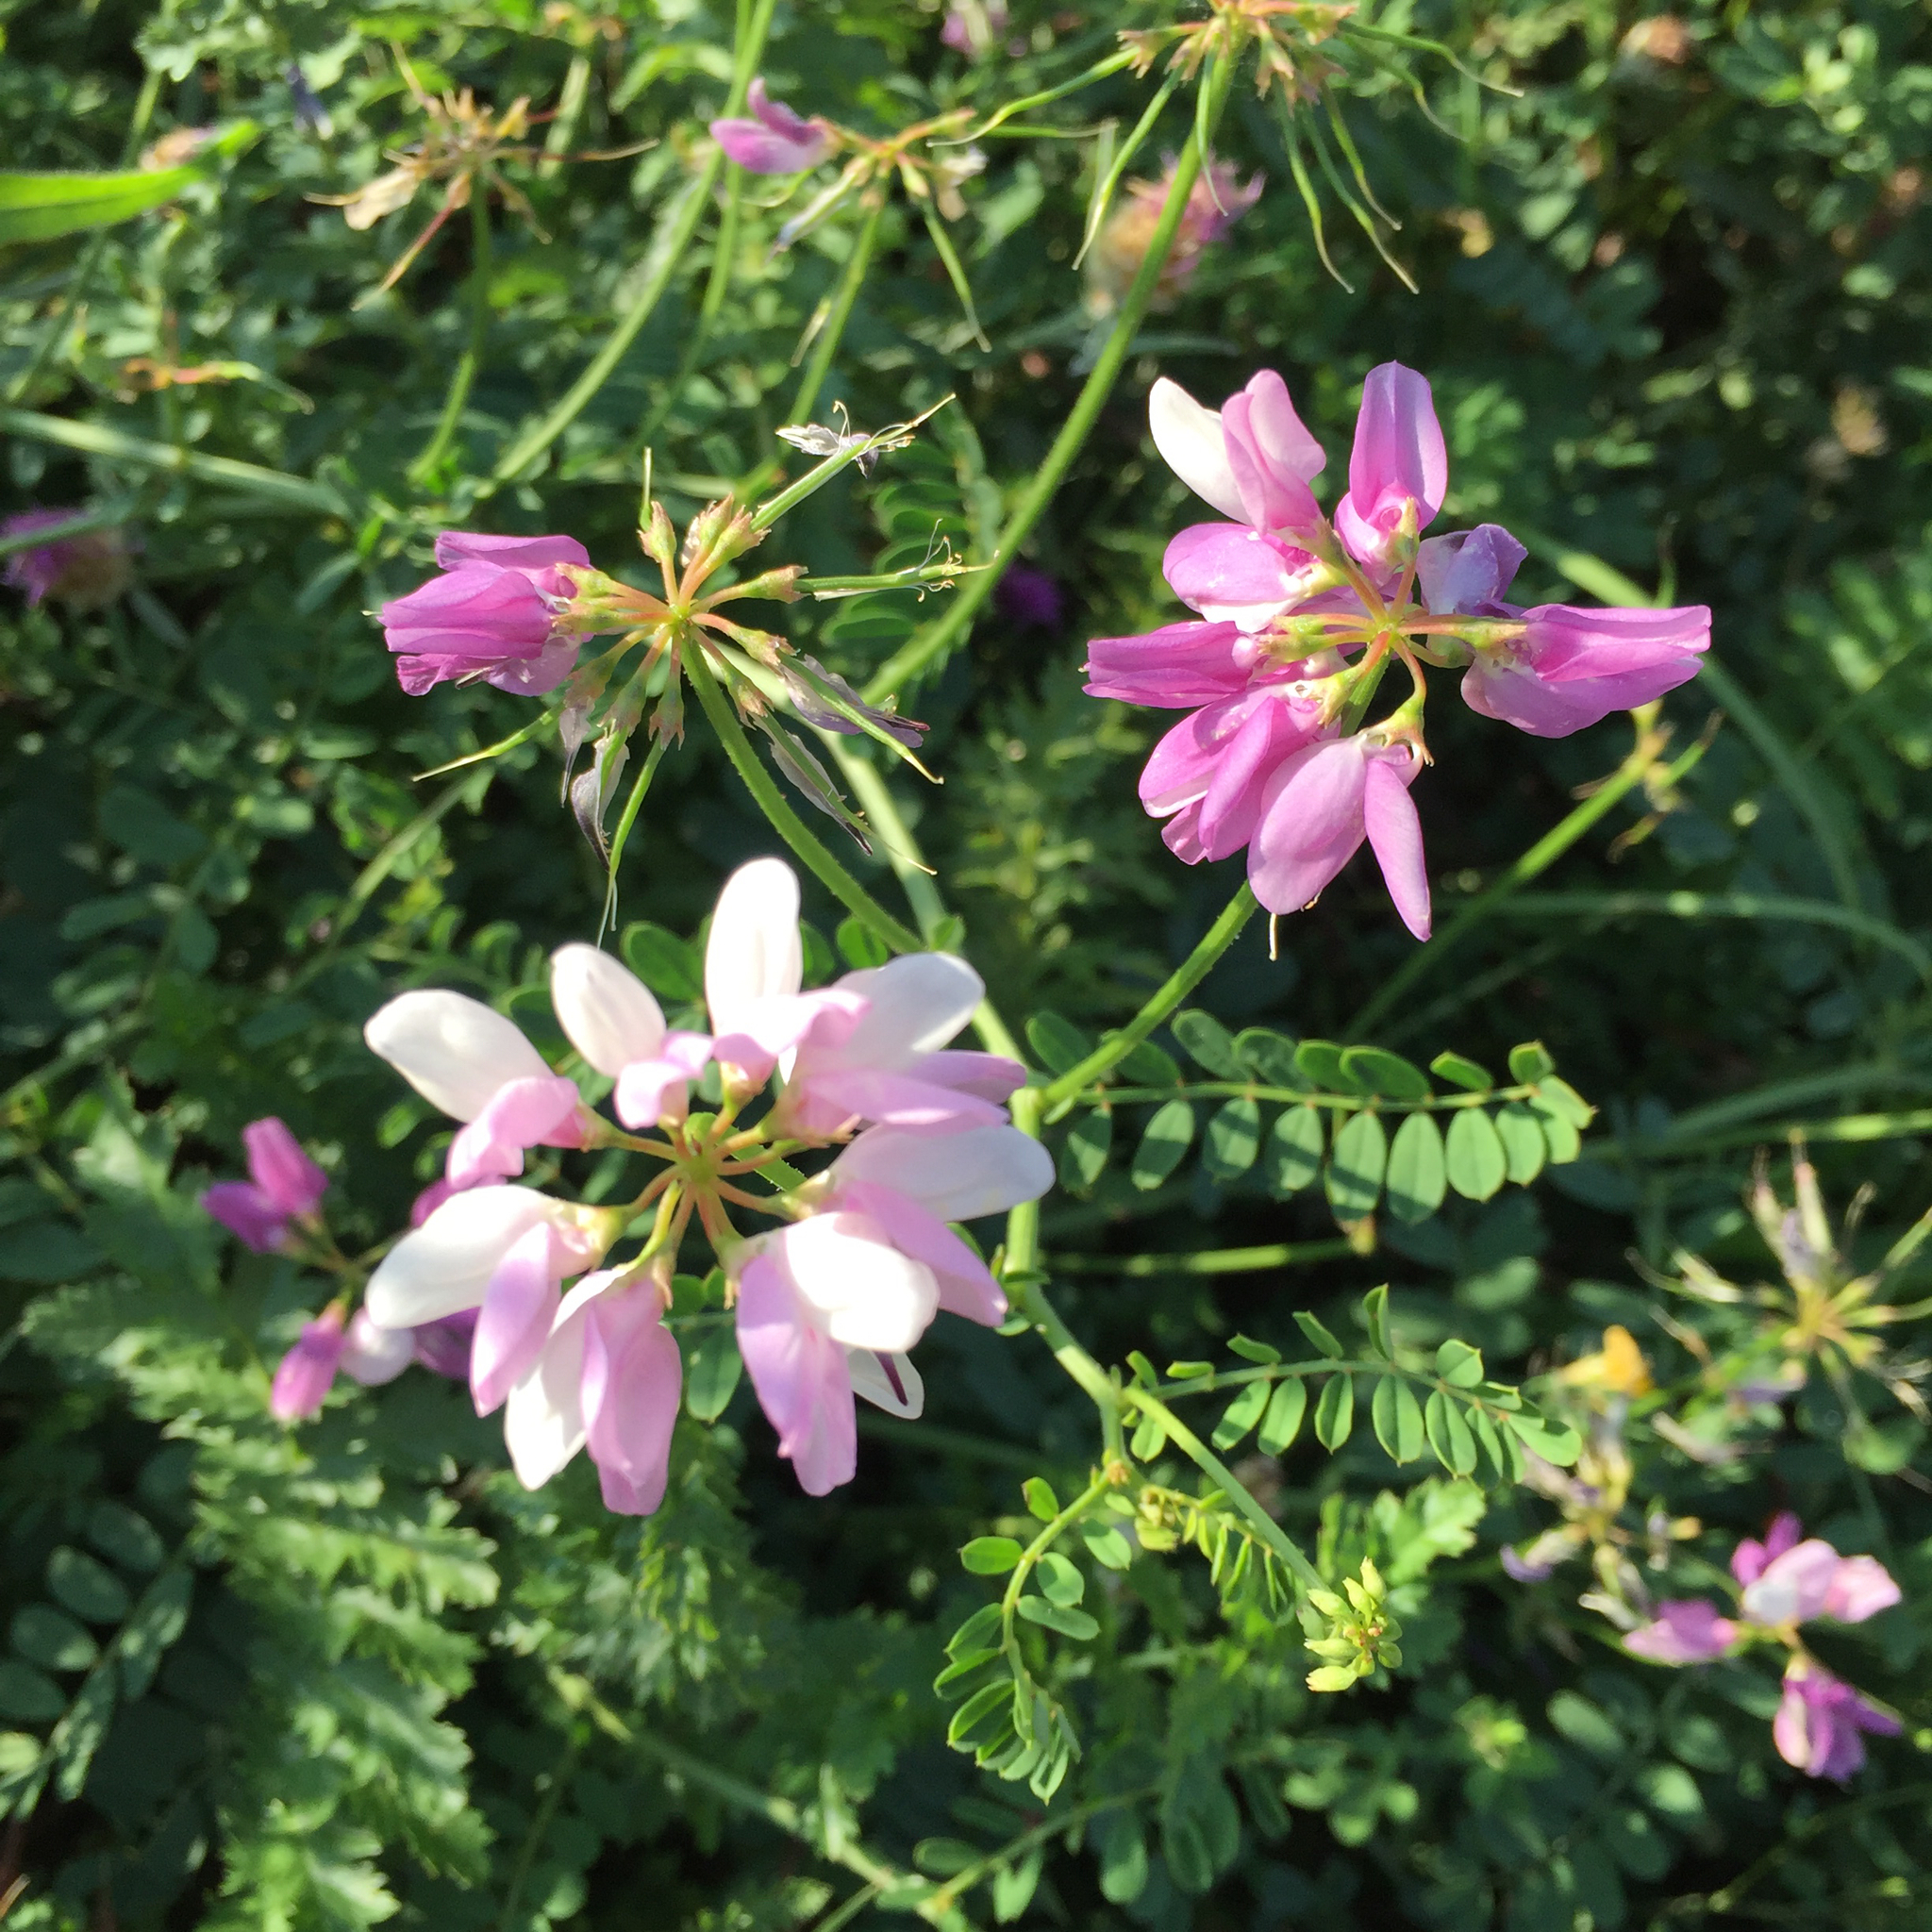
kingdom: Plantae
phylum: Tracheophyta
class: Magnoliopsida
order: Fabales
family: Fabaceae
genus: Coronilla
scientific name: Coronilla varia
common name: Crownvetch
